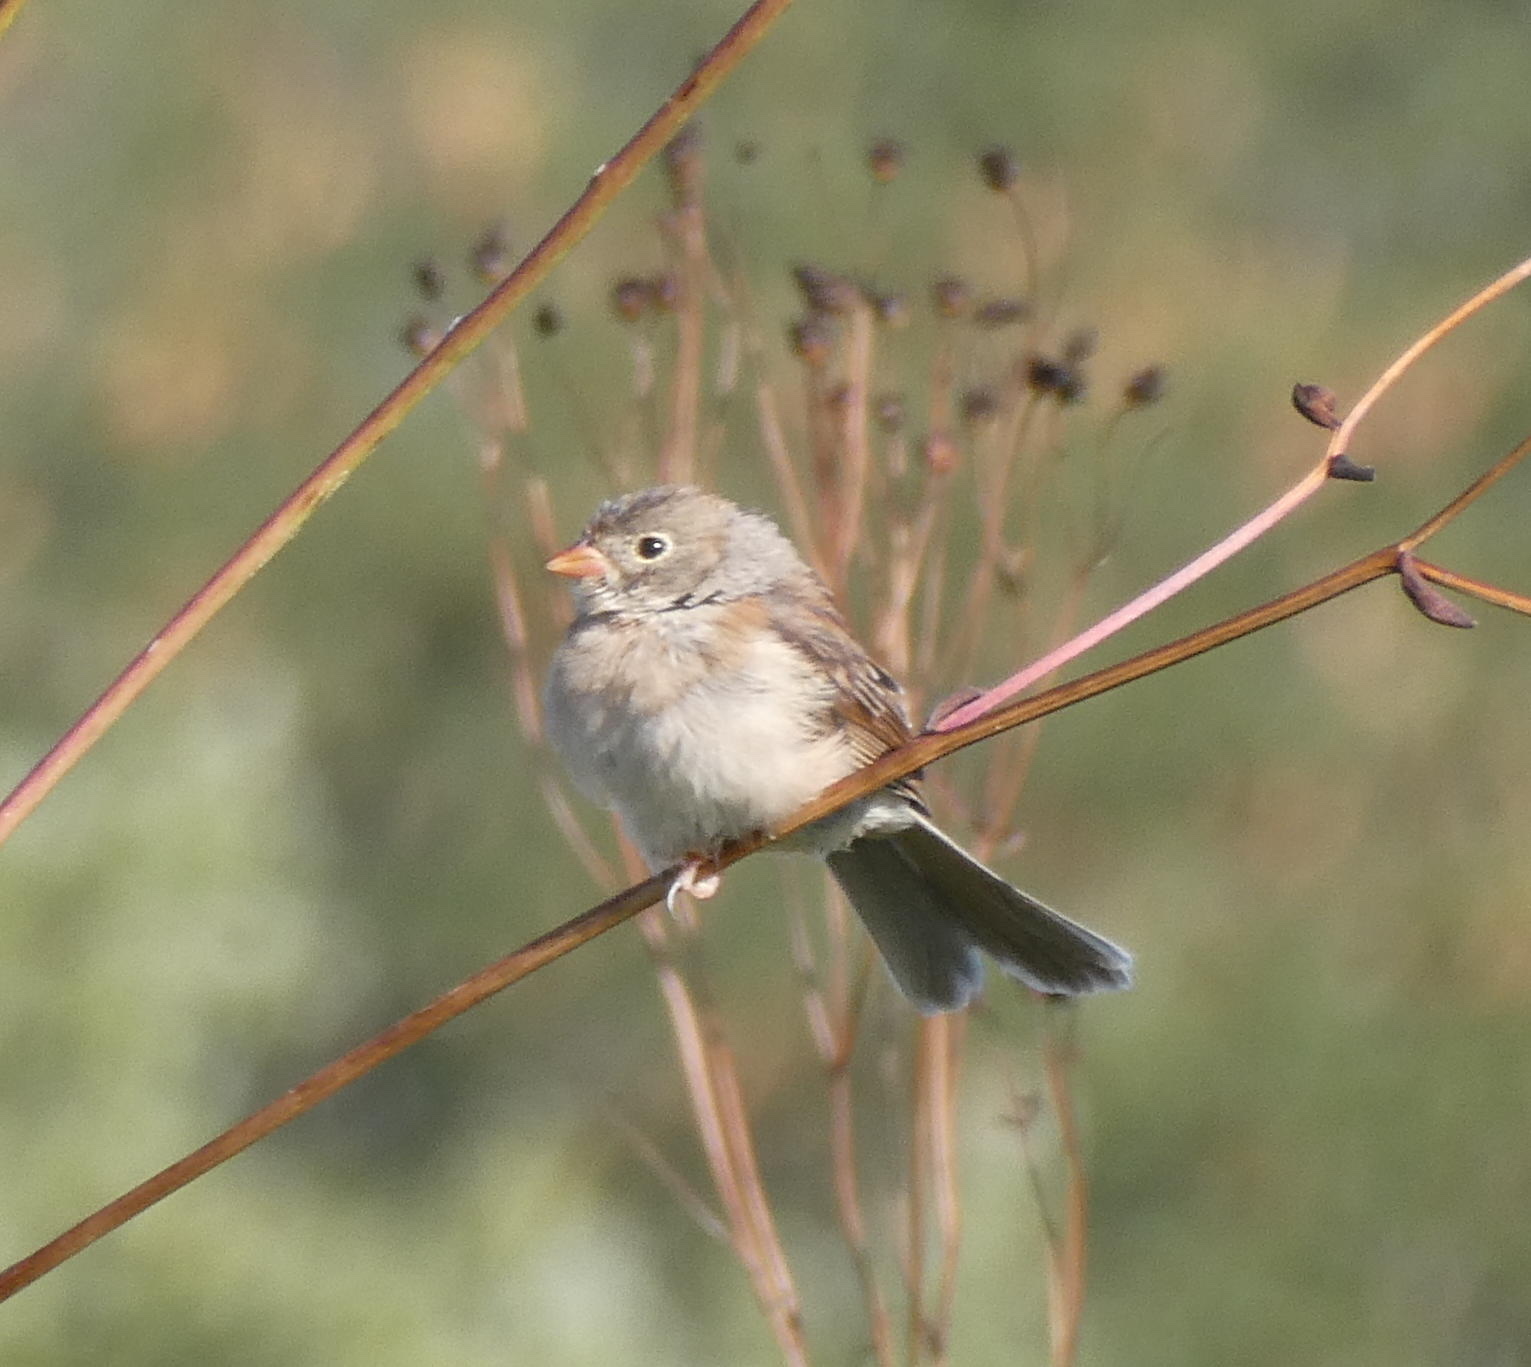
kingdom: Animalia
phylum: Chordata
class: Aves
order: Passeriformes
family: Passerellidae
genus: Spizella
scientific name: Spizella pusilla
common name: Field sparrow
